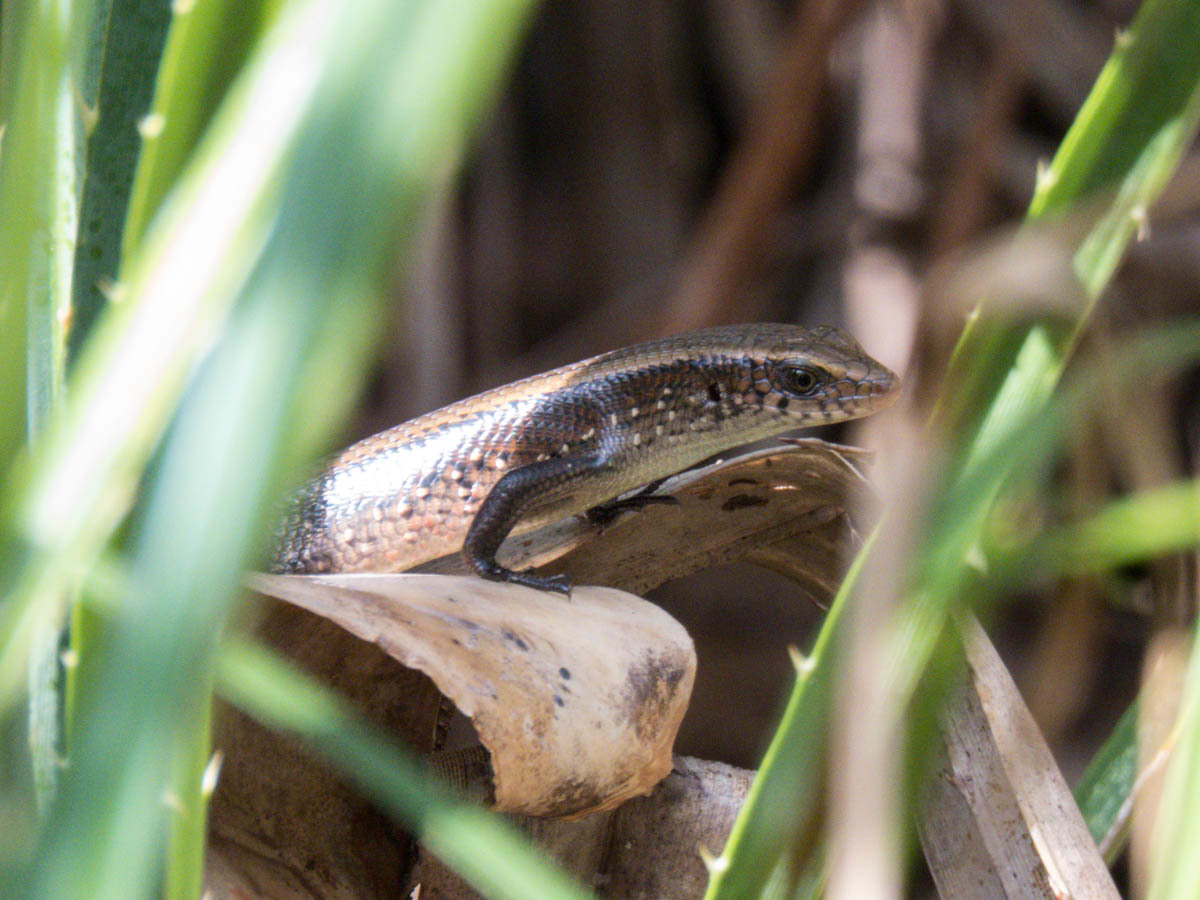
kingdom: Animalia
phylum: Chordata
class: Squamata
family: Scincidae
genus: Eutropis
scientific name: Eutropis multifasciata
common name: Common mabuya
